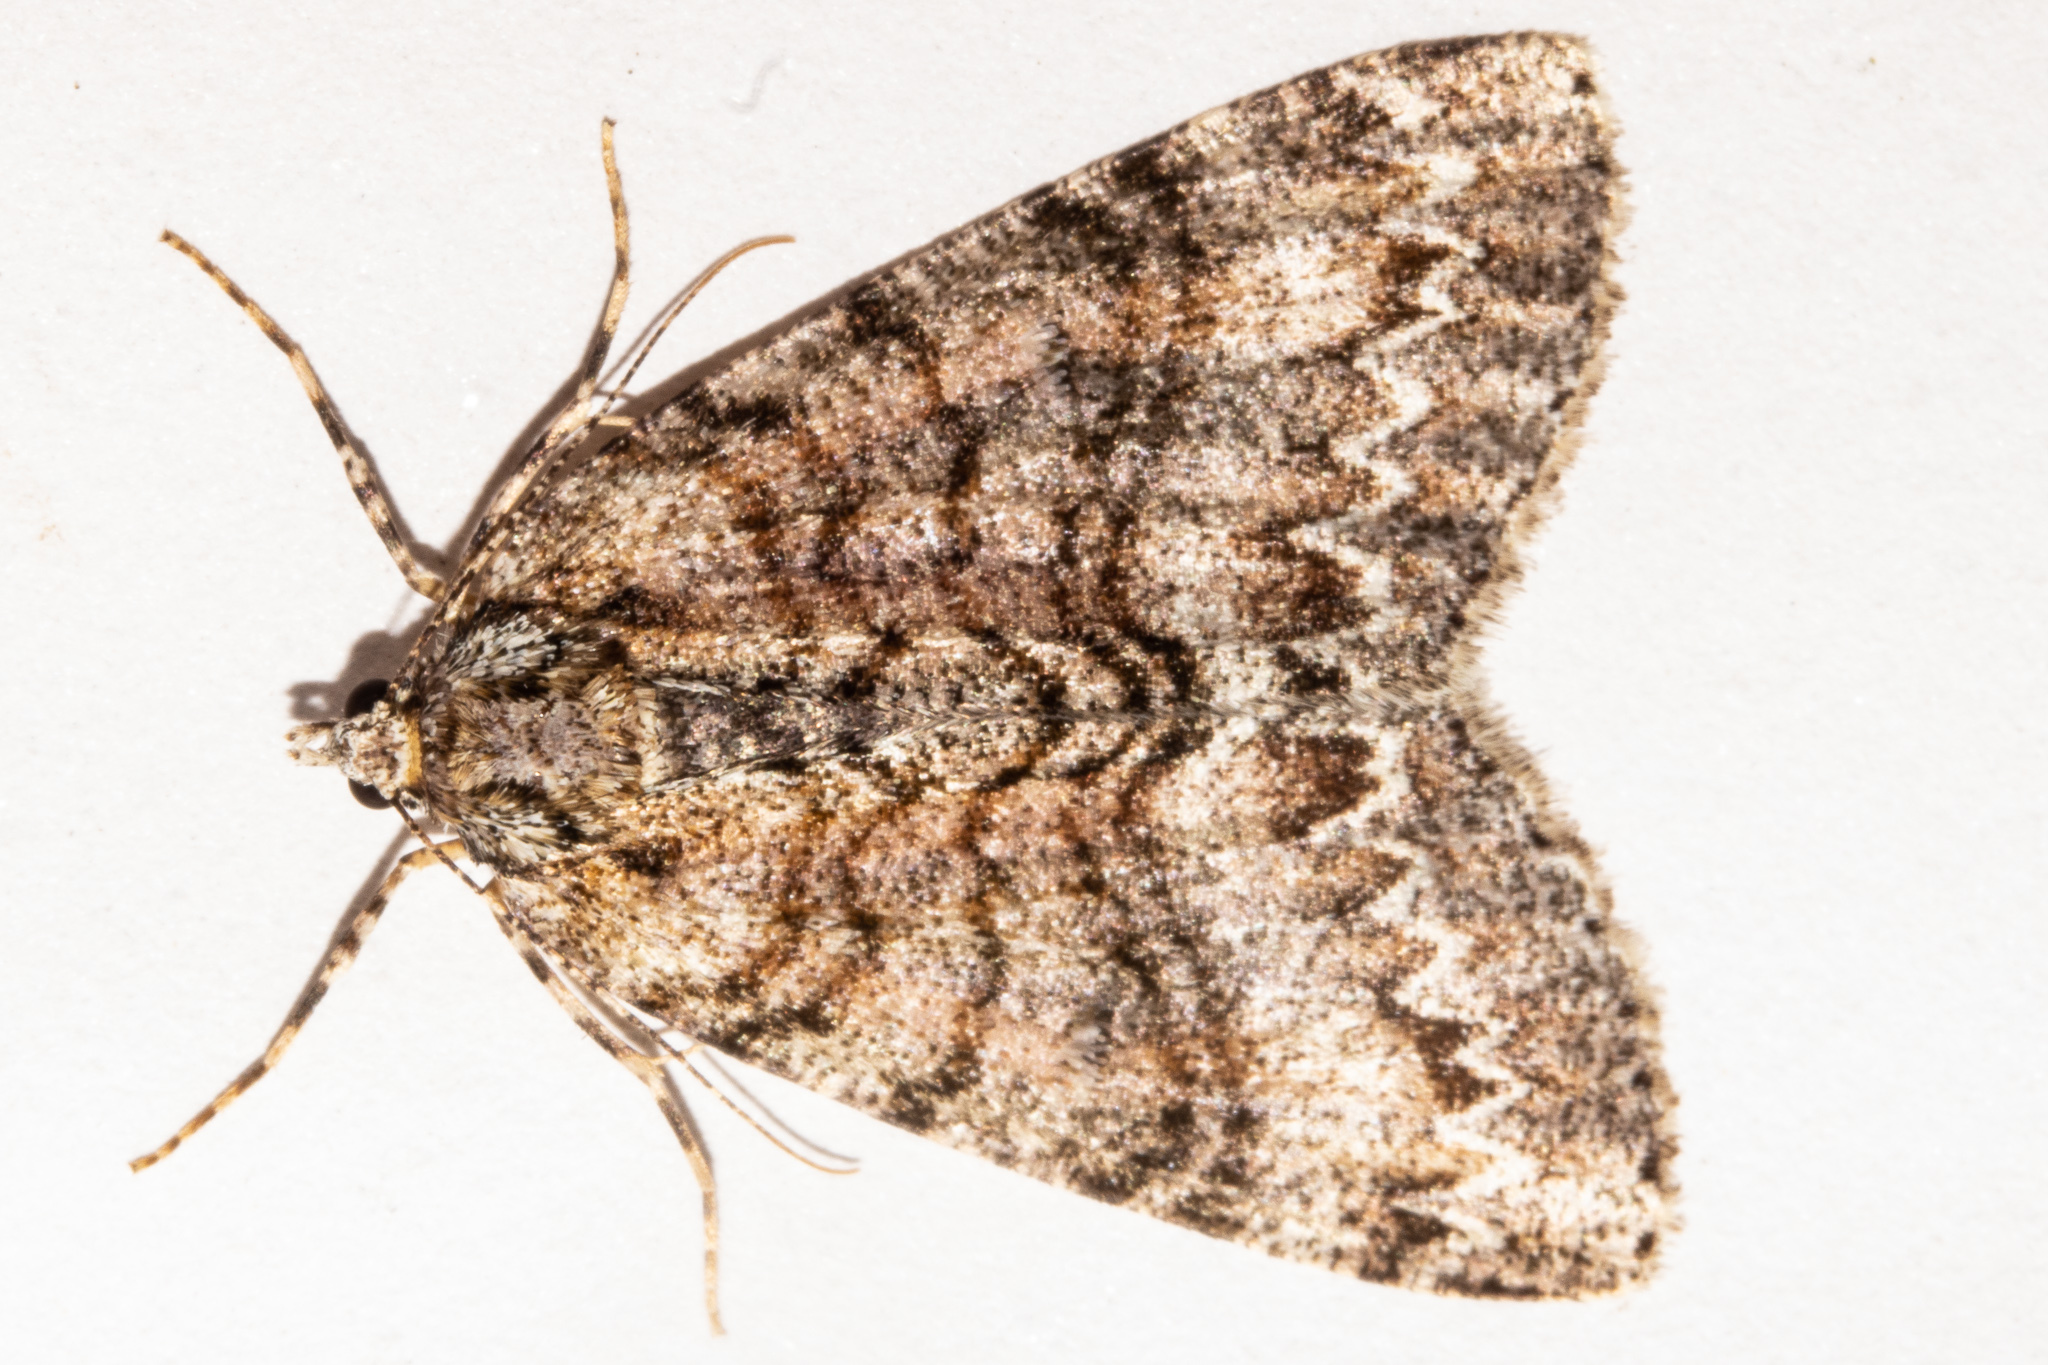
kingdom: Animalia
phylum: Arthropoda
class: Insecta
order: Lepidoptera
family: Geometridae
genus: Pseudocoremia
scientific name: Pseudocoremia suavis
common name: Common forest looper
